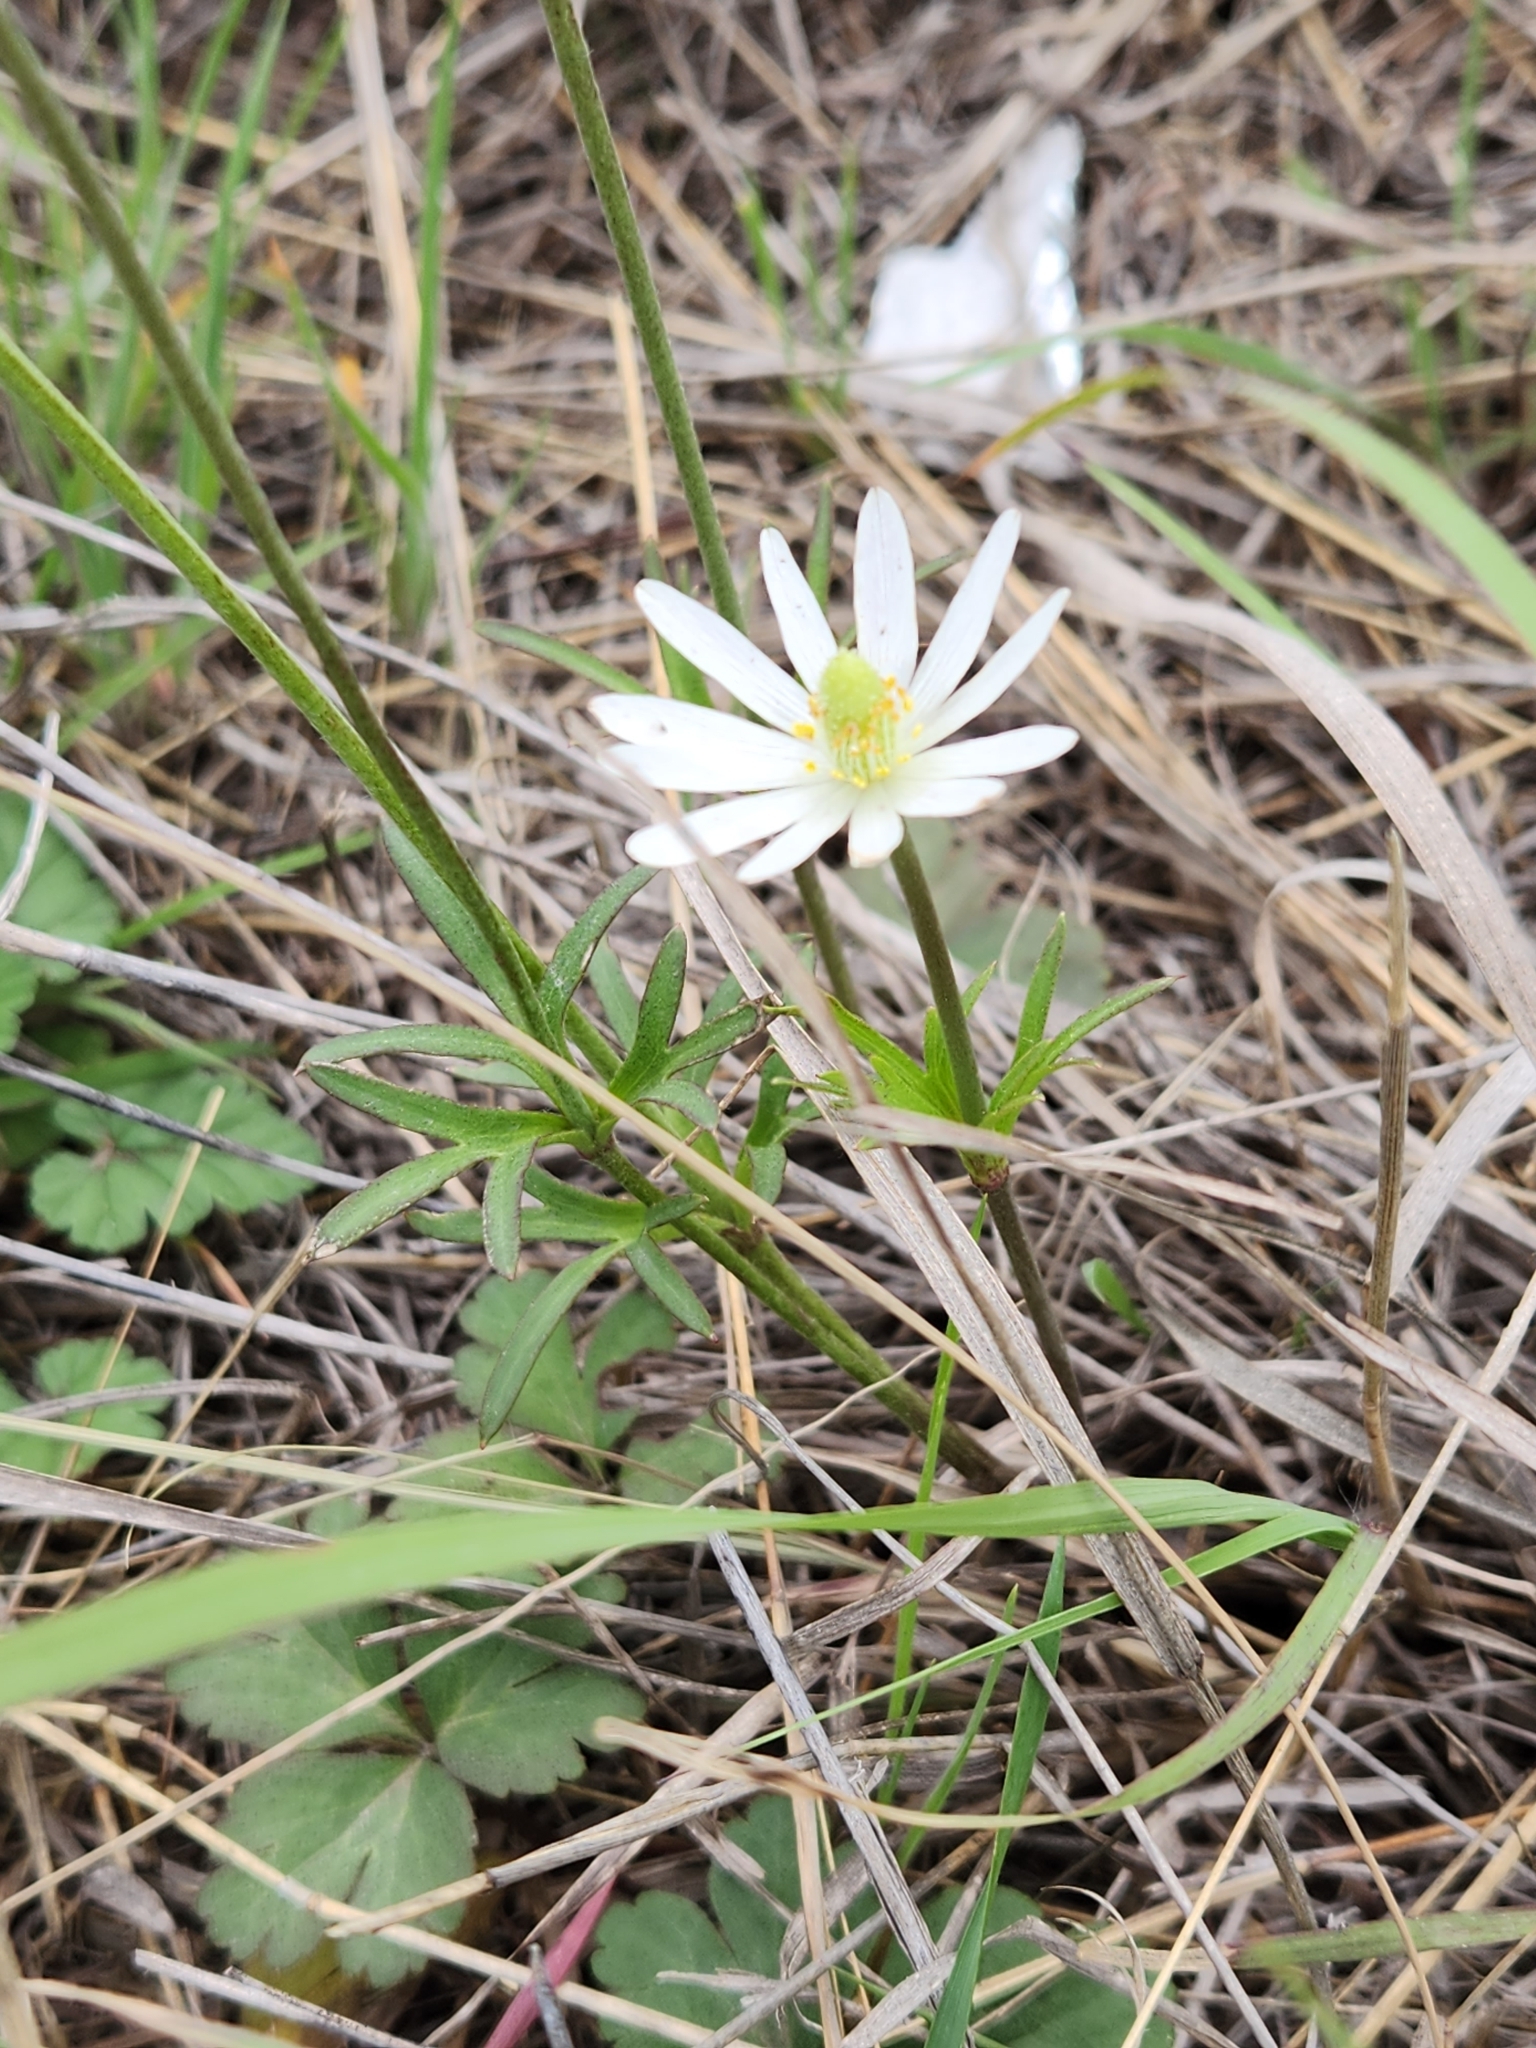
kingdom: Plantae
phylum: Tracheophyta
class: Magnoliopsida
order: Ranunculales
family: Ranunculaceae
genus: Anemone
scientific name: Anemone berlandieri
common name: Ten-petal anemone
